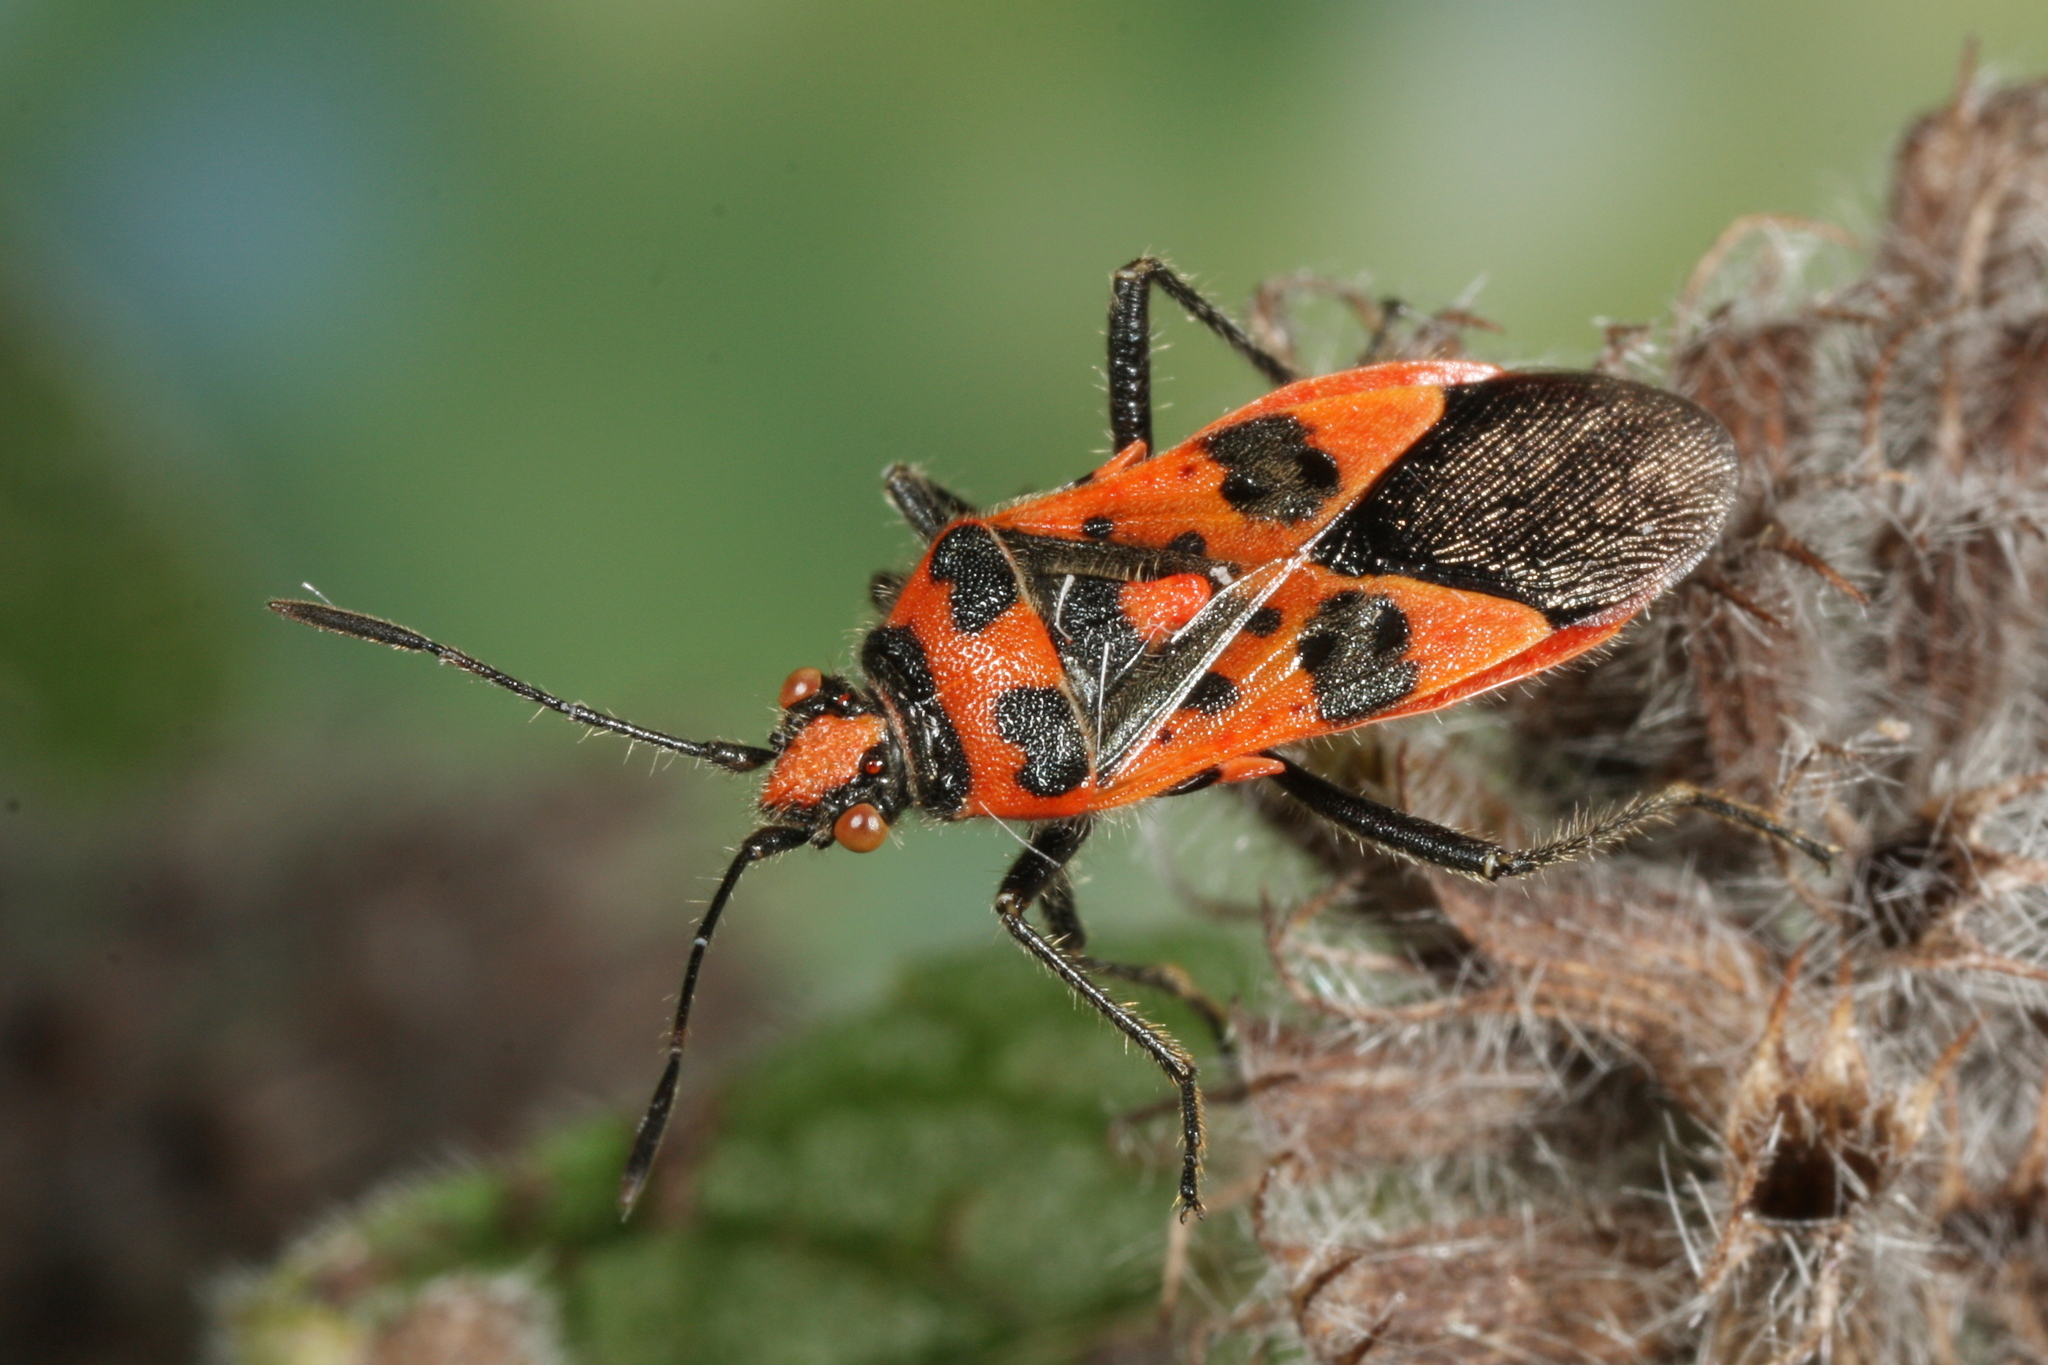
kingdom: Animalia
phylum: Arthropoda
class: Insecta
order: Hemiptera
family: Rhopalidae
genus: Corizus
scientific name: Corizus hyoscyami
